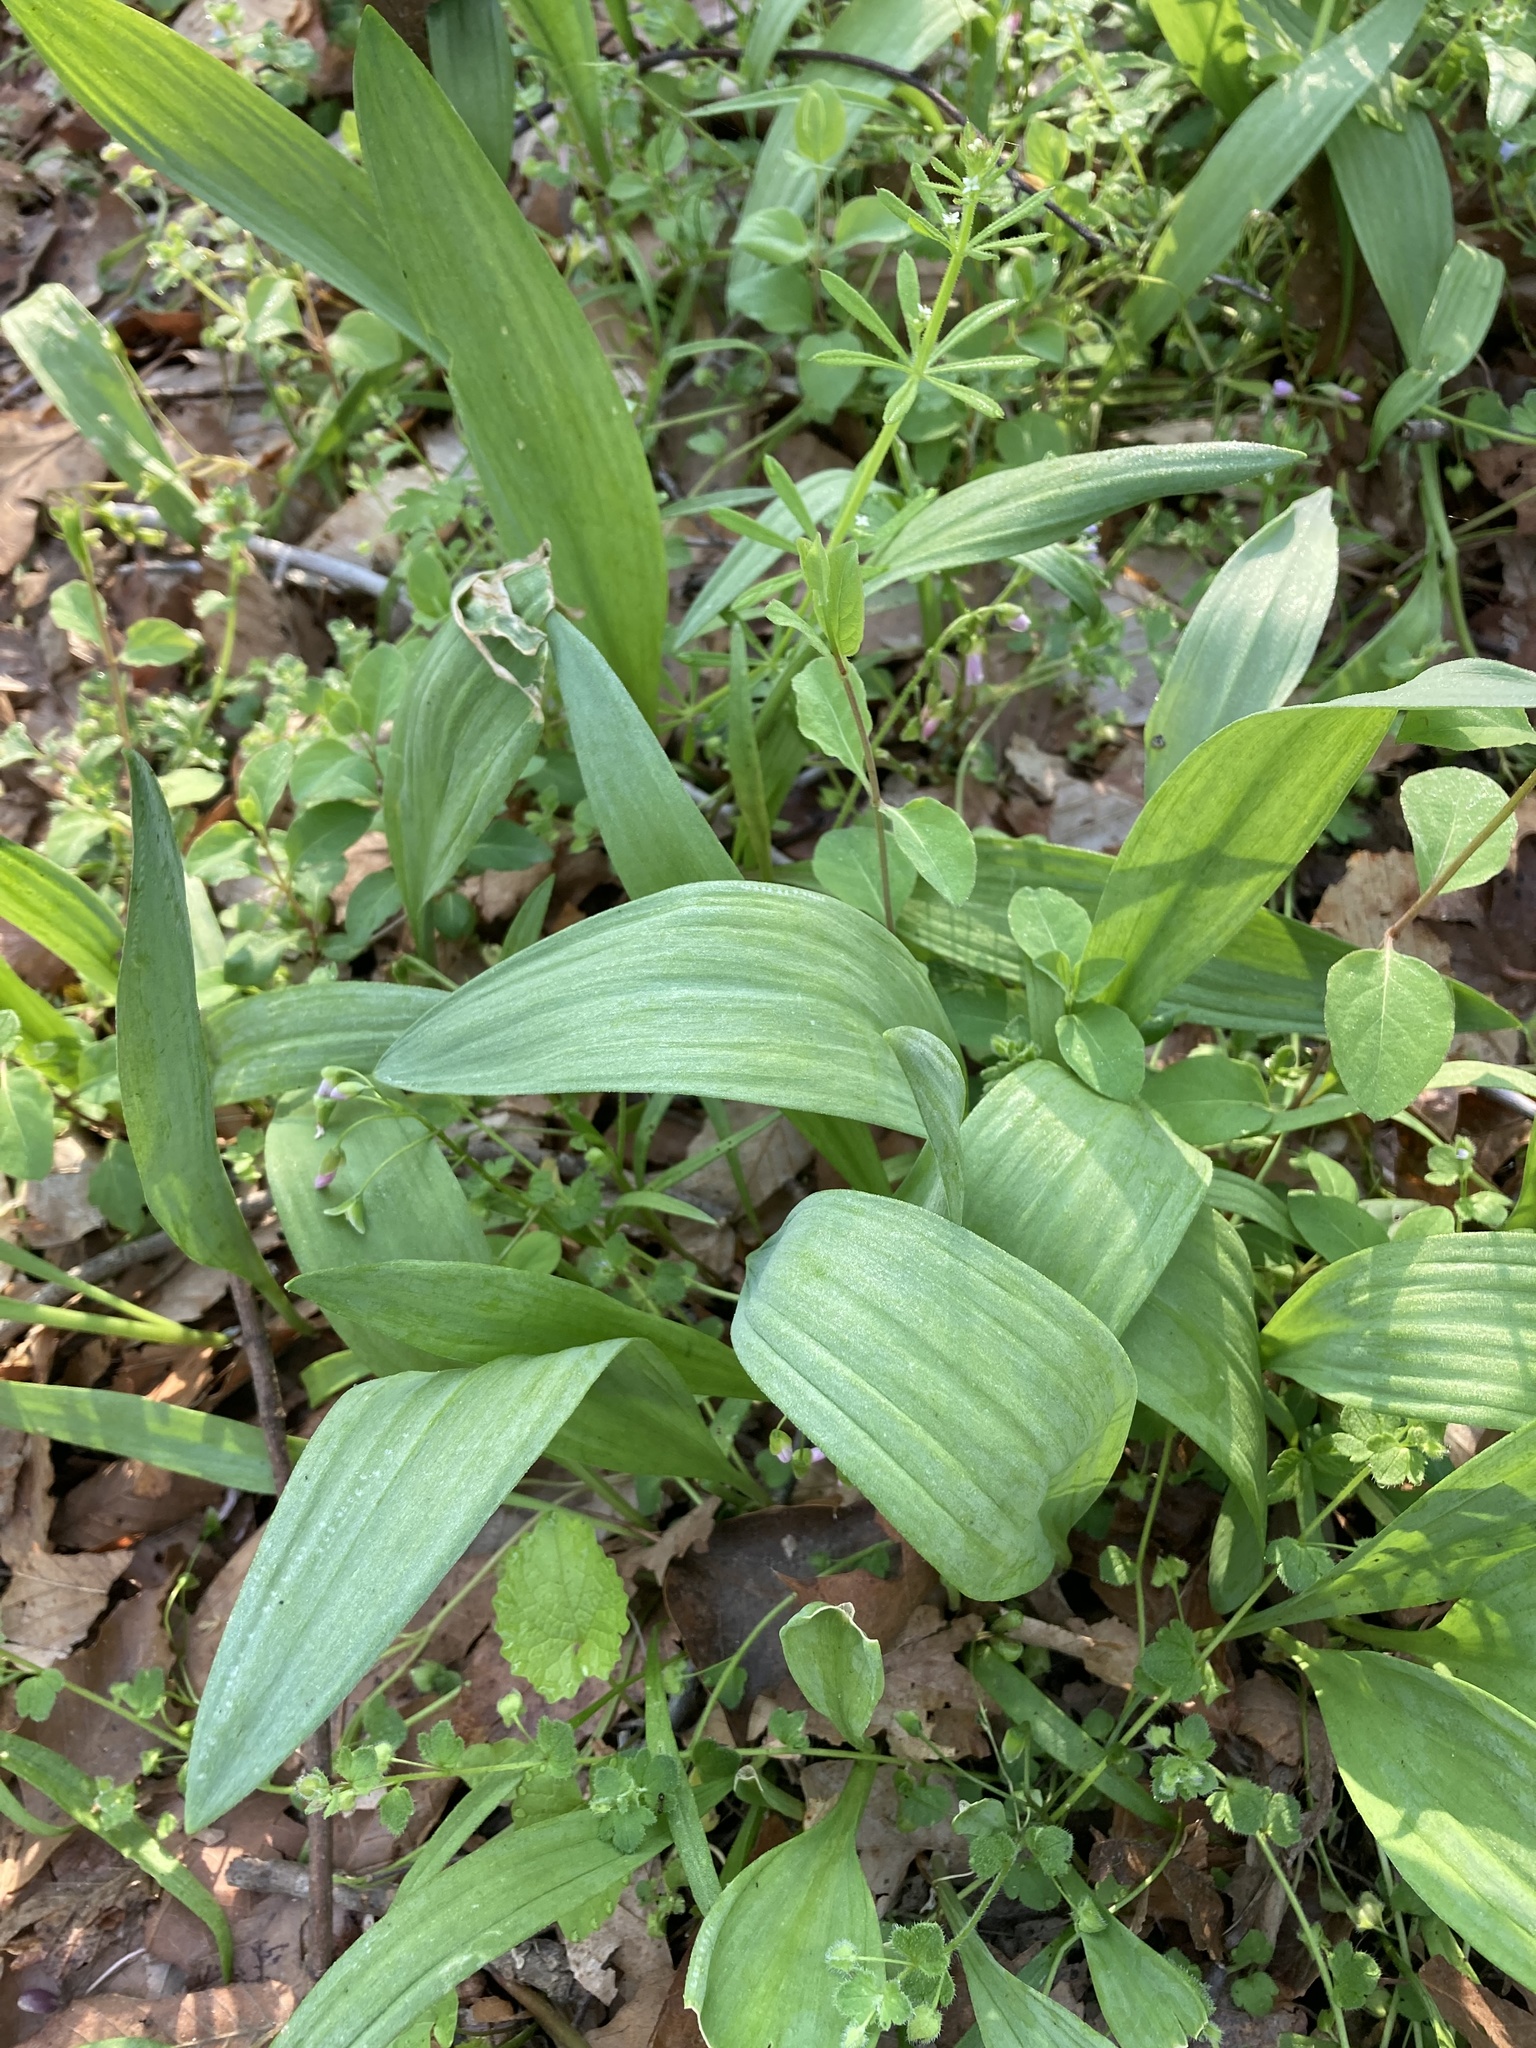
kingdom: Plantae
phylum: Tracheophyta
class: Liliopsida
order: Asparagales
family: Amaryllidaceae
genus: Allium
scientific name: Allium tricoccum
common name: Ramp
